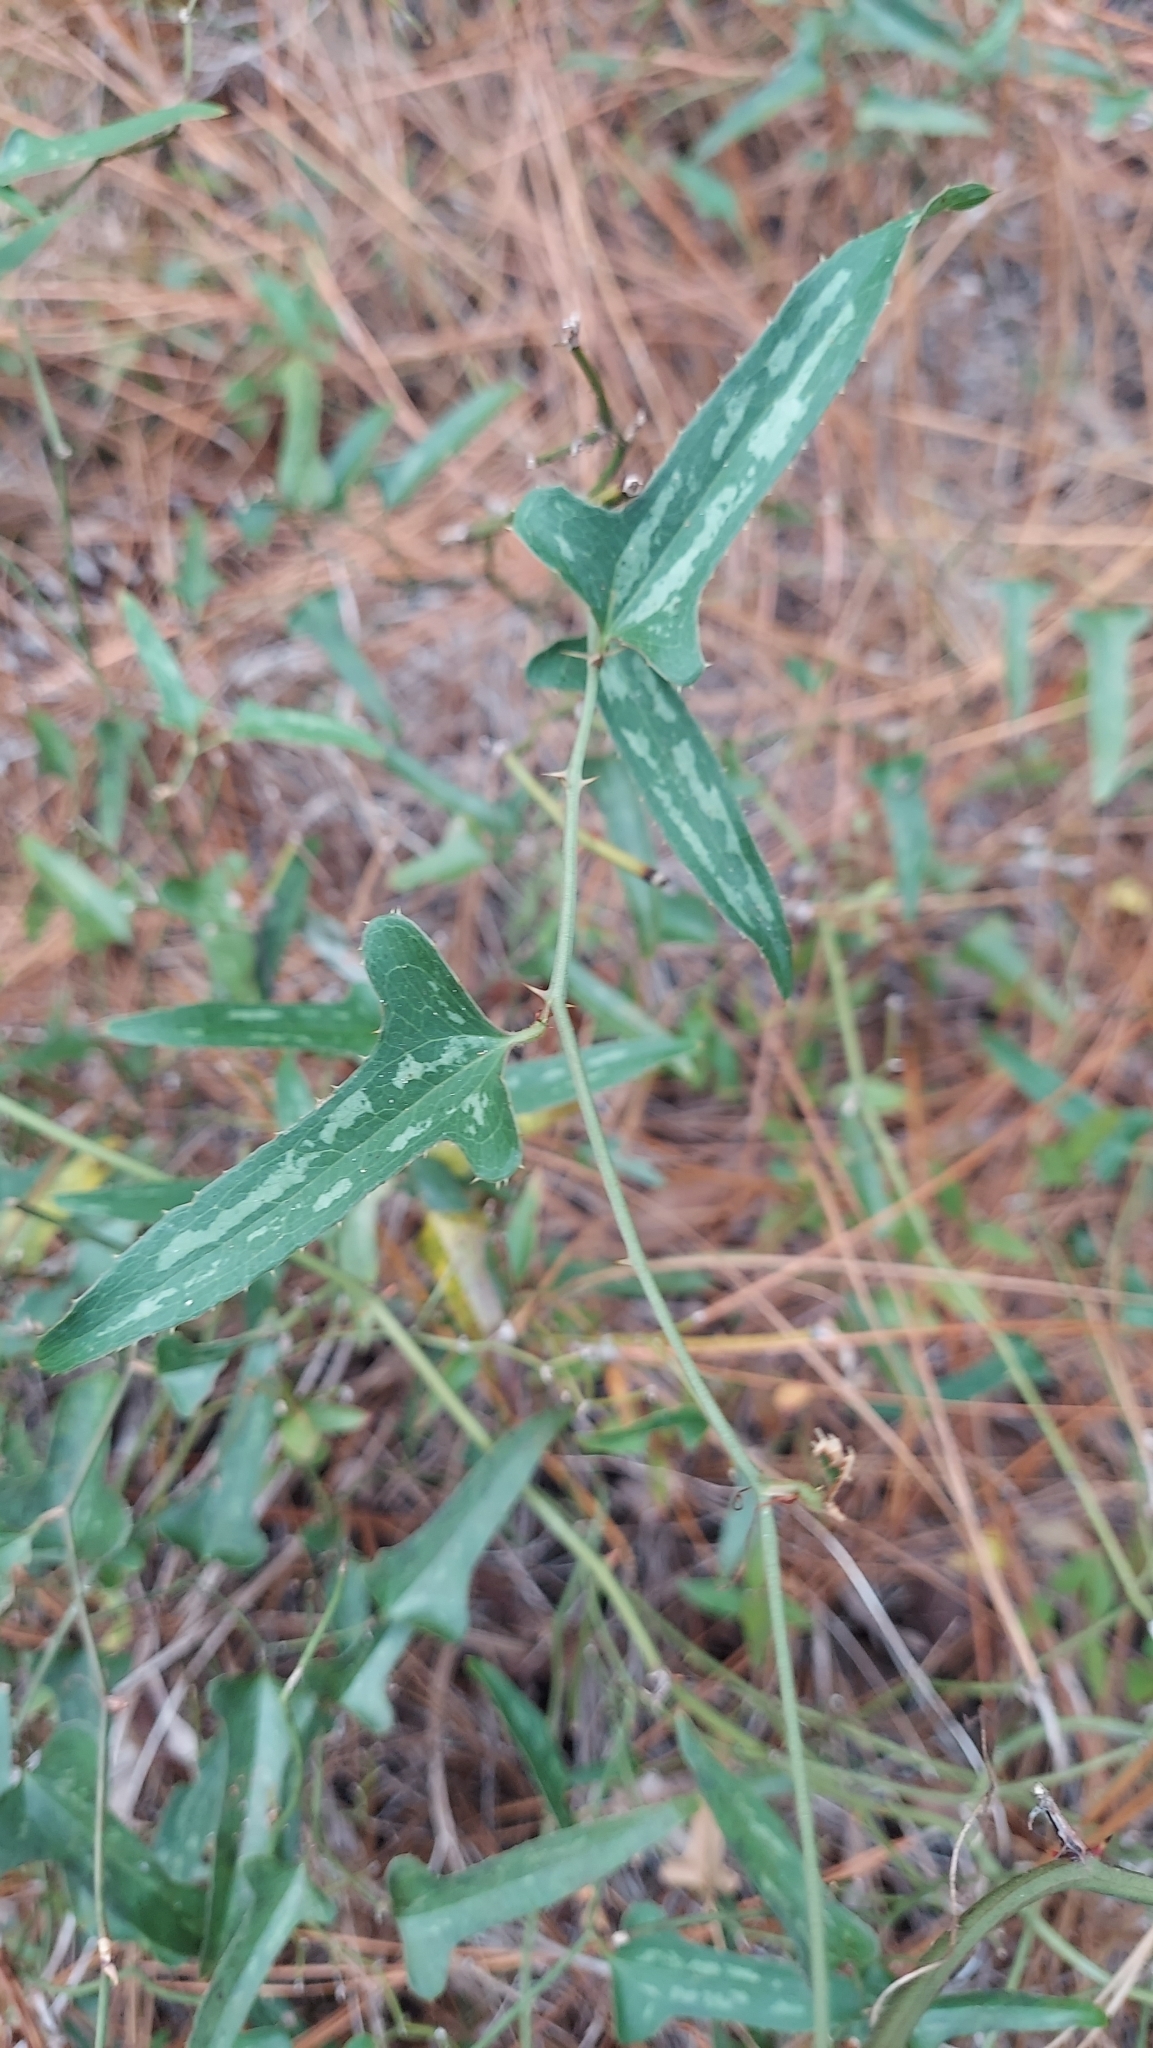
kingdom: Plantae
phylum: Tracheophyta
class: Liliopsida
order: Liliales
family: Smilacaceae
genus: Smilax
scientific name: Smilax bona-nox
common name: Catbrier
